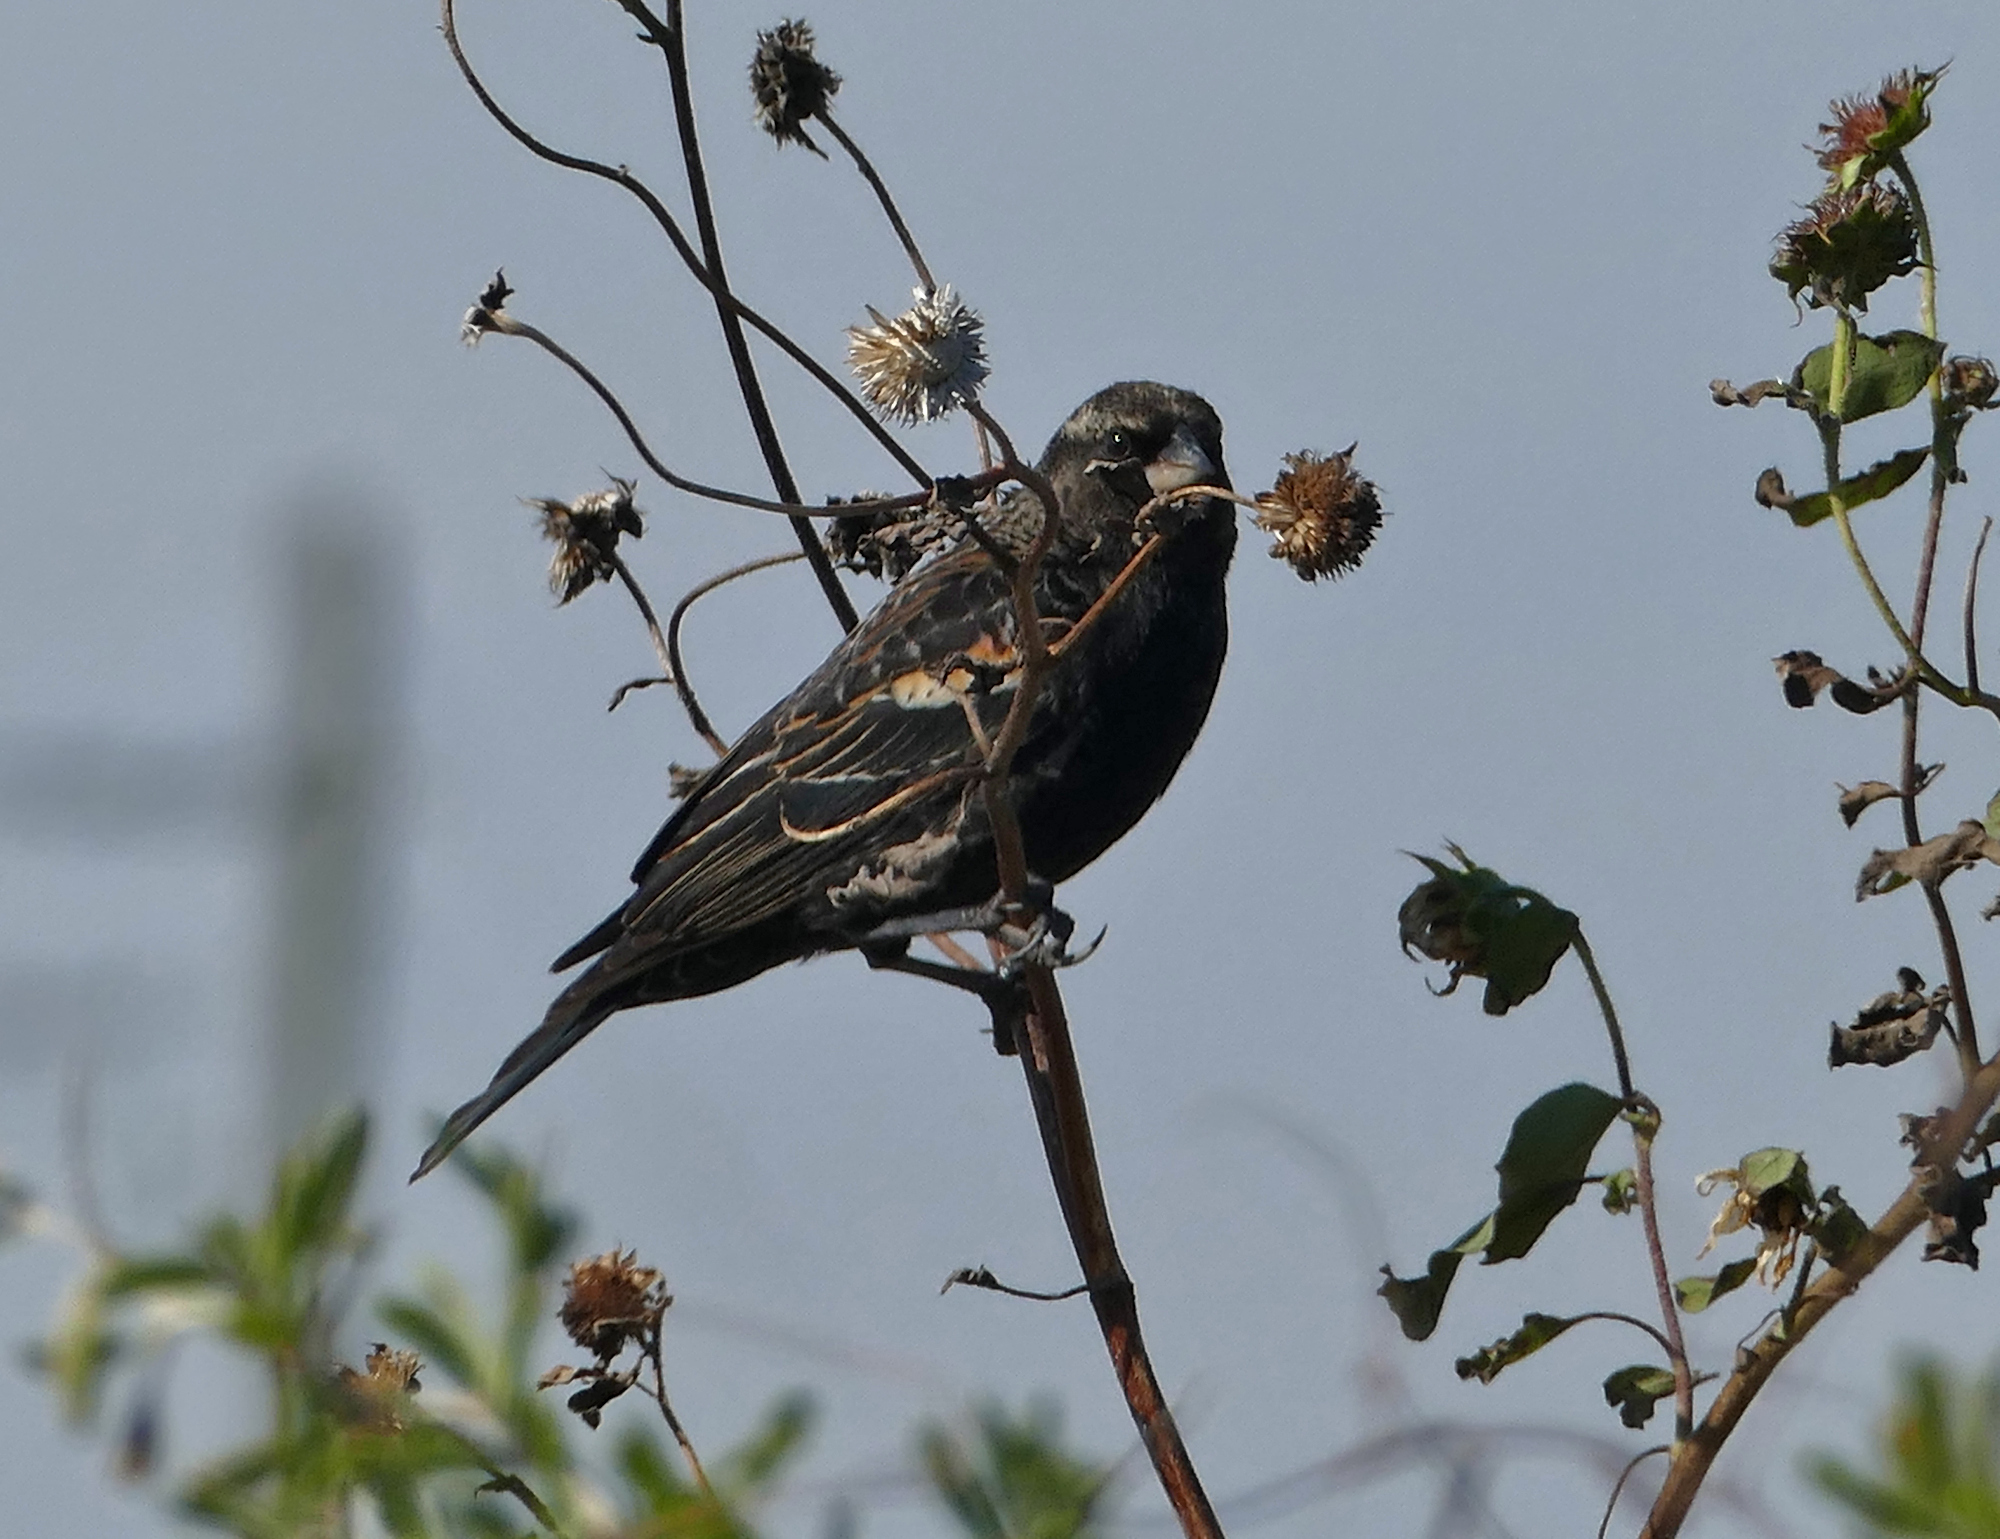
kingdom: Animalia
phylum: Chordata
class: Aves
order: Passeriformes
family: Icteridae
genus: Agelaius
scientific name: Agelaius phoeniceus
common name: Red-winged blackbird
